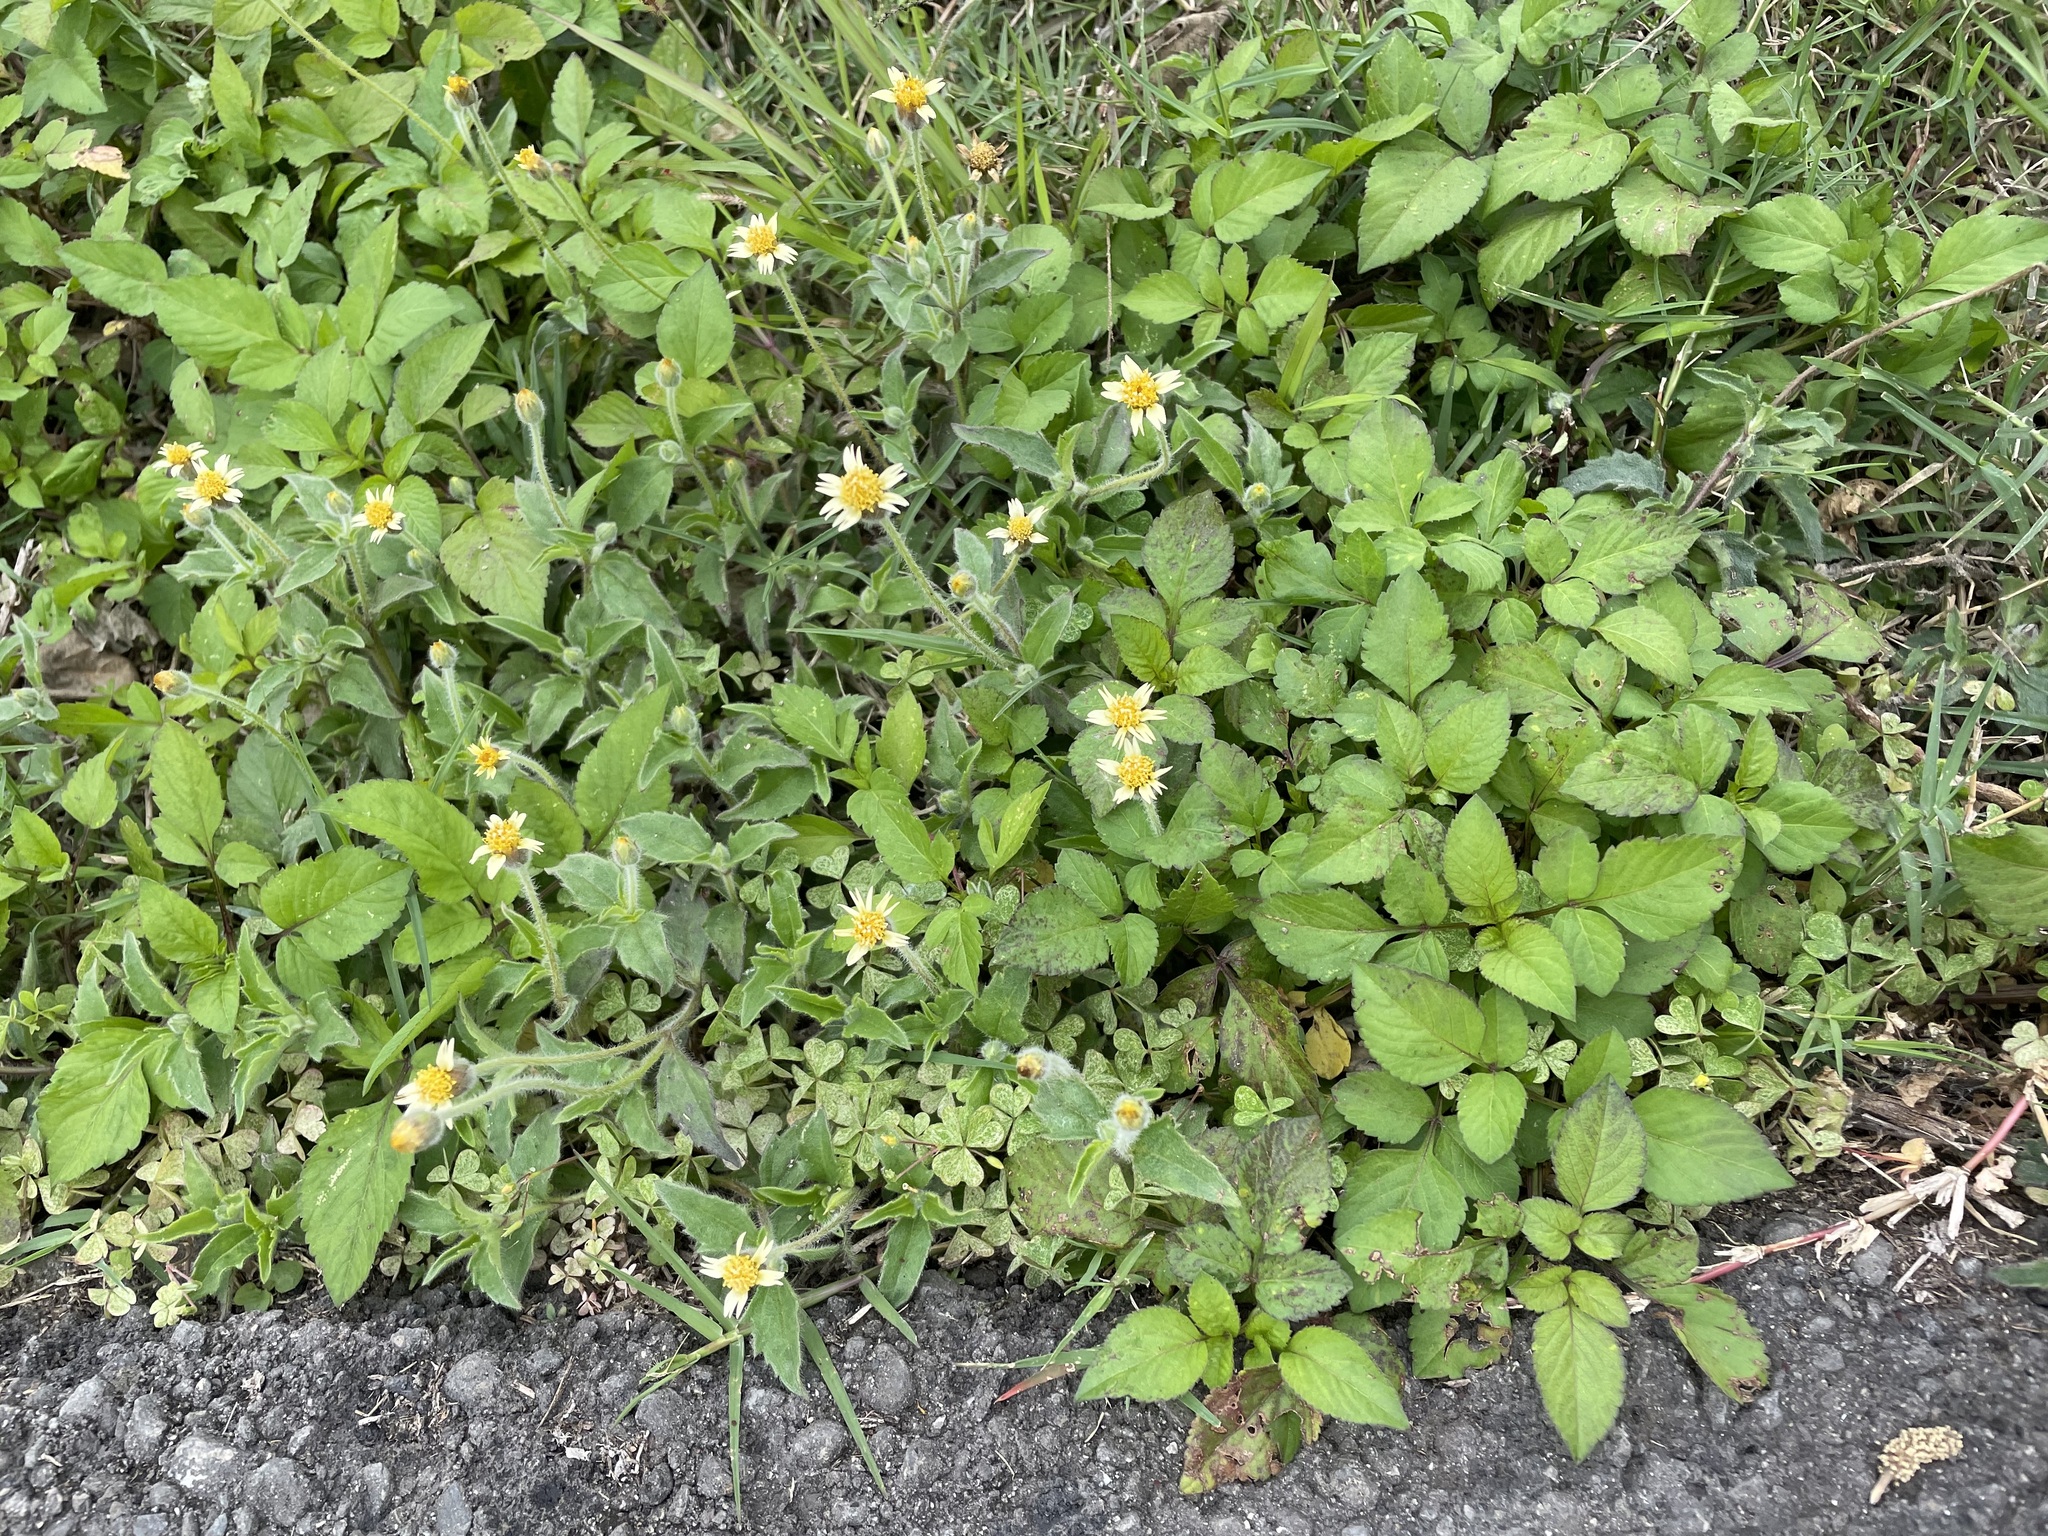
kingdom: Plantae
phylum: Tracheophyta
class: Magnoliopsida
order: Asterales
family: Asteraceae
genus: Tridax
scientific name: Tridax procumbens
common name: Coatbuttons
